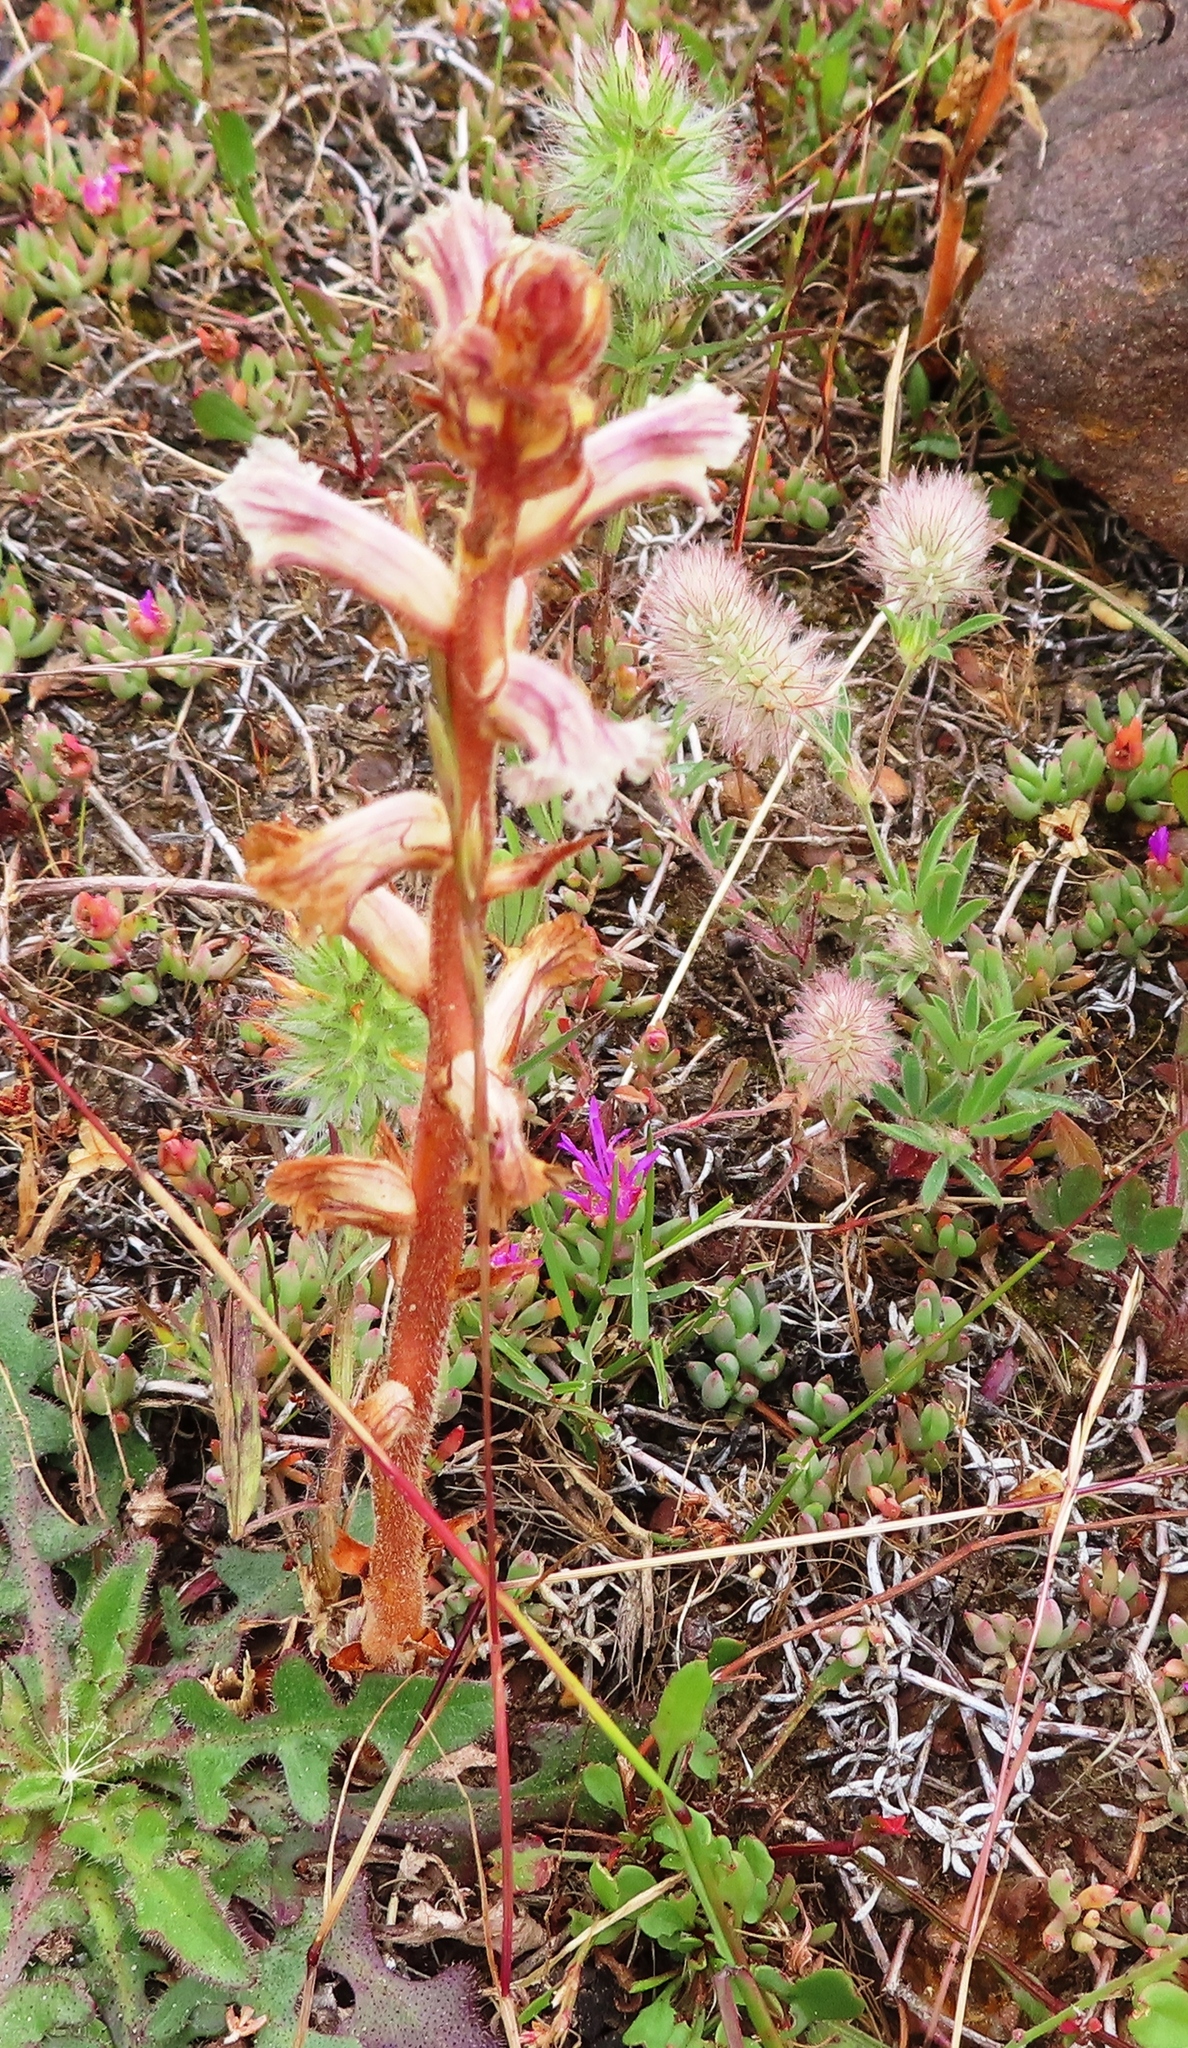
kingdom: Plantae
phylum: Tracheophyta
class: Magnoliopsida
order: Lamiales
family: Orobanchaceae
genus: Orobanche
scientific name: Orobanche minor
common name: Common broomrape
